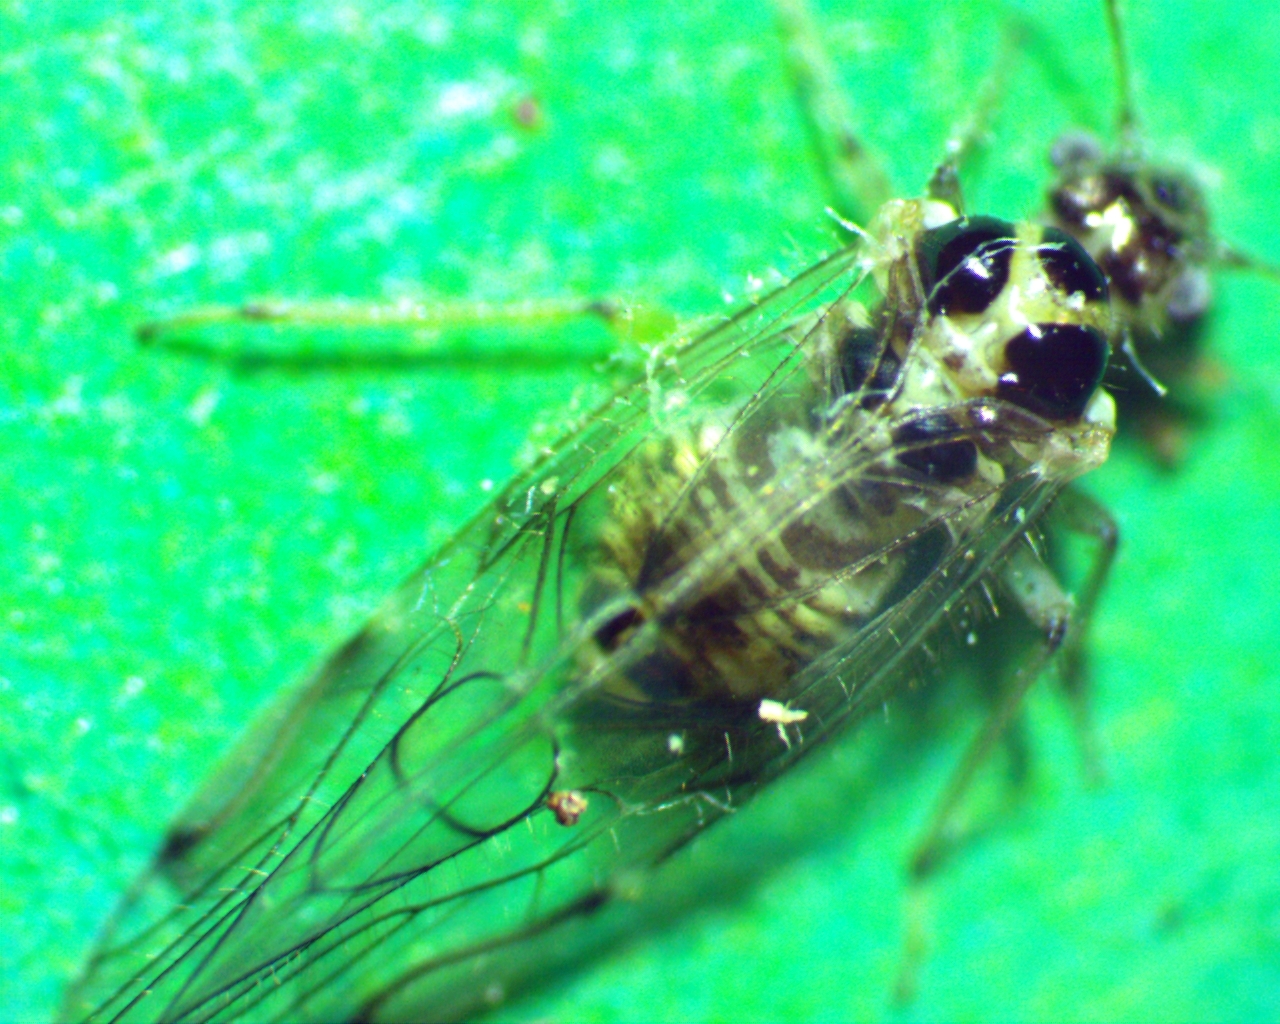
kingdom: Animalia
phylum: Arthropoda
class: Insecta
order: Psocodea
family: Dasydemellidae
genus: Teliapsocus
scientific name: Teliapsocus conterminus
